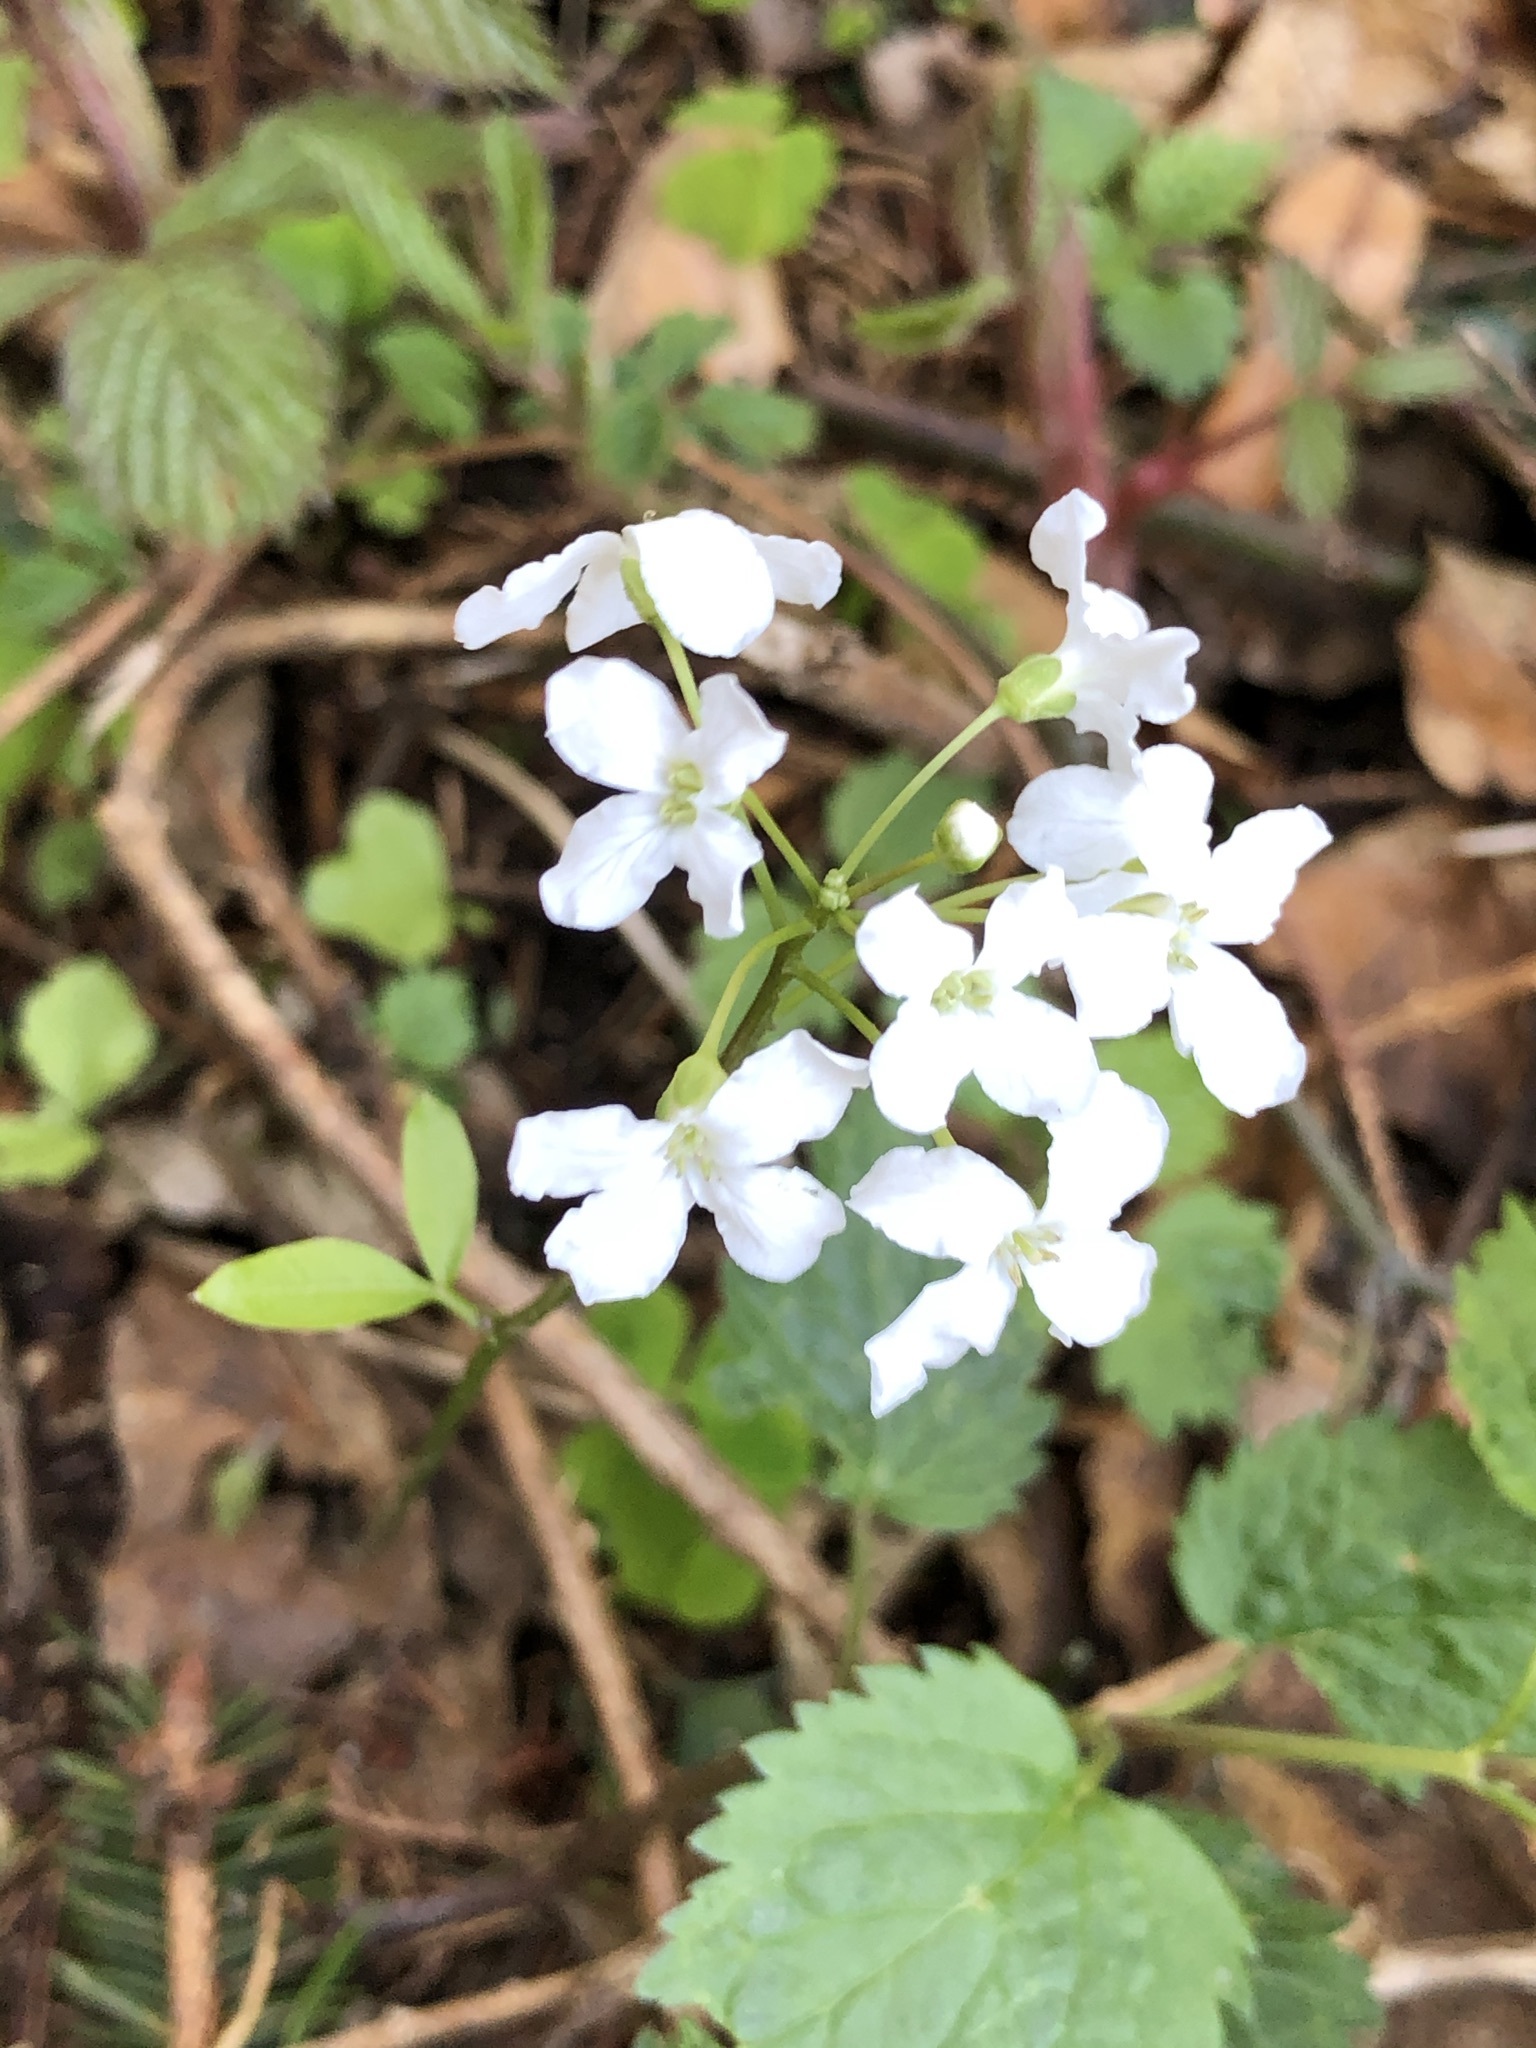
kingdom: Plantae
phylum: Tracheophyta
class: Magnoliopsida
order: Brassicales
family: Brassicaceae
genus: Cardamine
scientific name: Cardamine trifolia
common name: Trefoil cress
